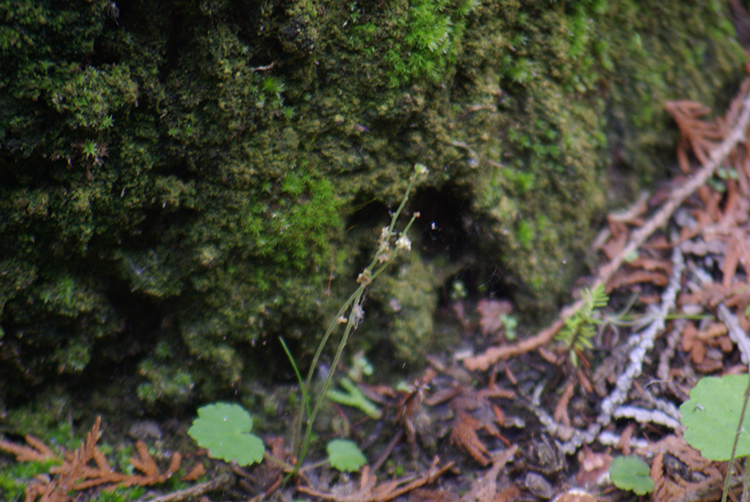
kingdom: Plantae
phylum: Tracheophyta
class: Magnoliopsida
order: Saxifragales
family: Saxifragaceae
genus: Mitella
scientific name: Mitella nuda
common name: Bare-stemmed bishop's-cap
